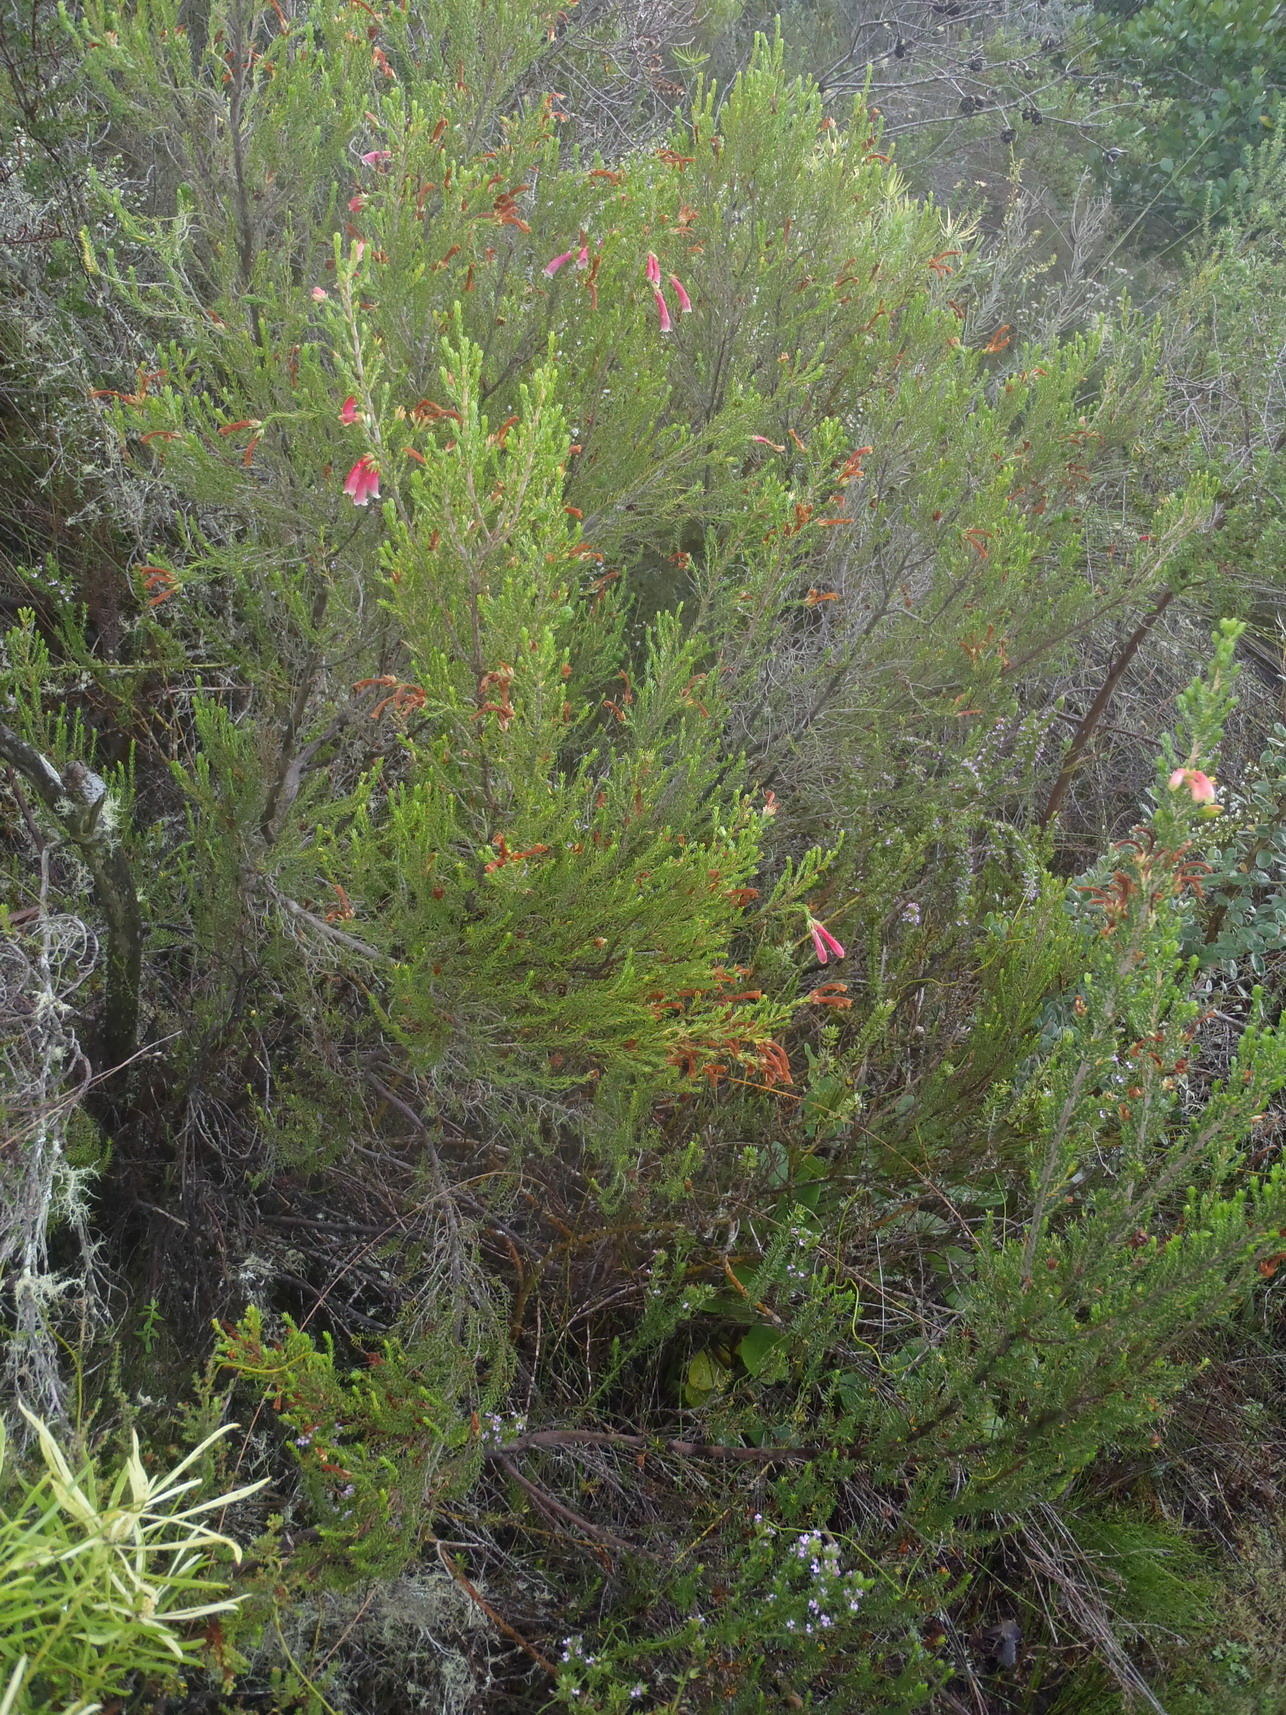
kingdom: Plantae
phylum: Tracheophyta
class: Magnoliopsida
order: Ericales
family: Ericaceae
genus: Erica
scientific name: Erica discolor
